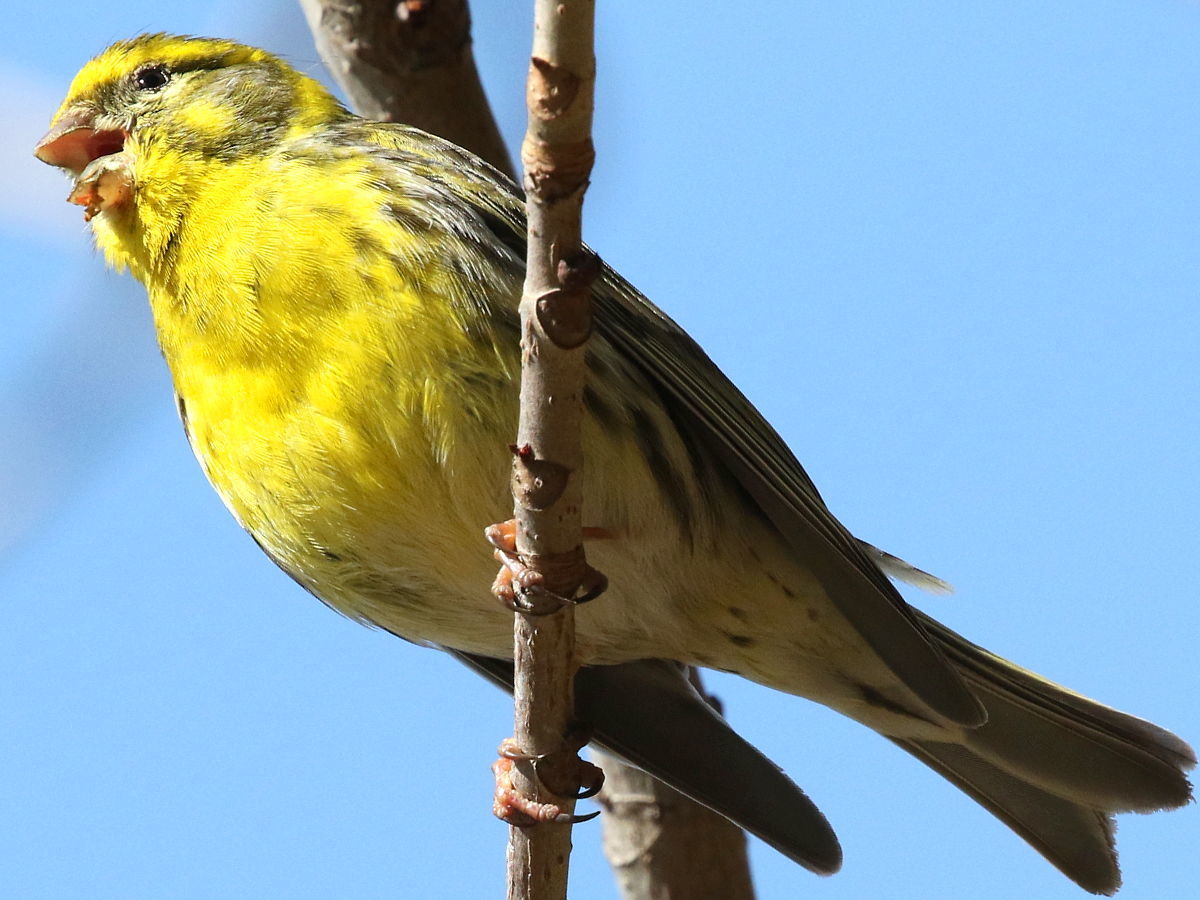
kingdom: Animalia
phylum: Chordata
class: Aves
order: Passeriformes
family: Fringillidae
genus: Serinus
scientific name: Serinus serinus
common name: European serin
